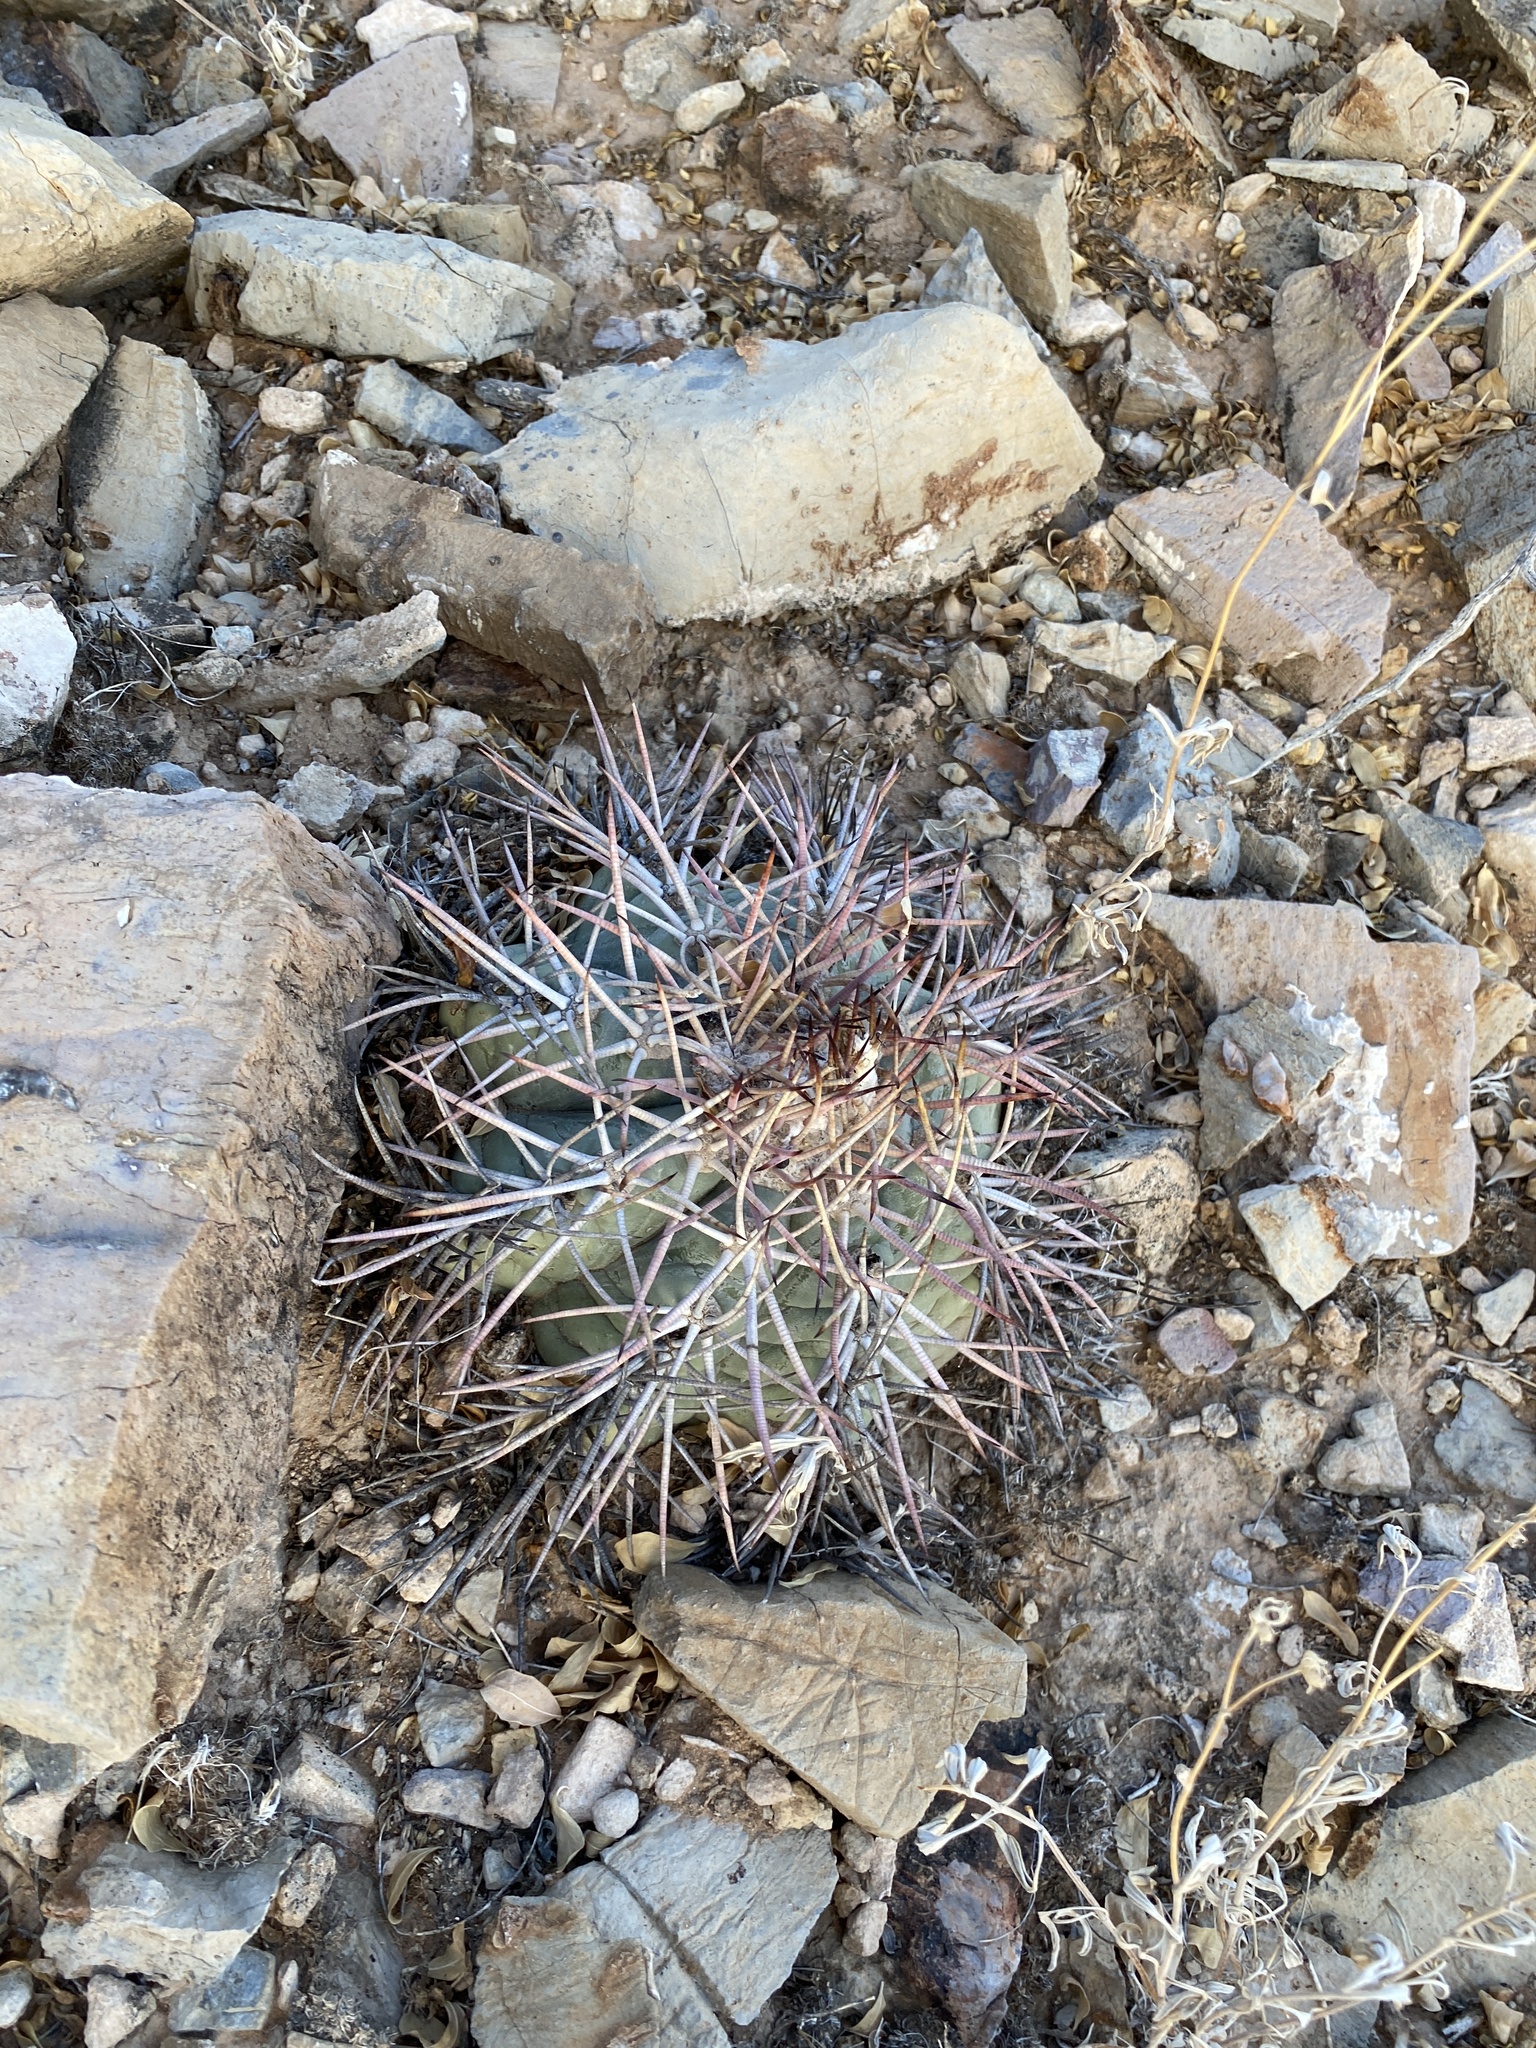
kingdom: Plantae
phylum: Tracheophyta
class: Magnoliopsida
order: Caryophyllales
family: Cactaceae
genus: Echinocactus
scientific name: Echinocactus horizonthalonius
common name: Devilshead
